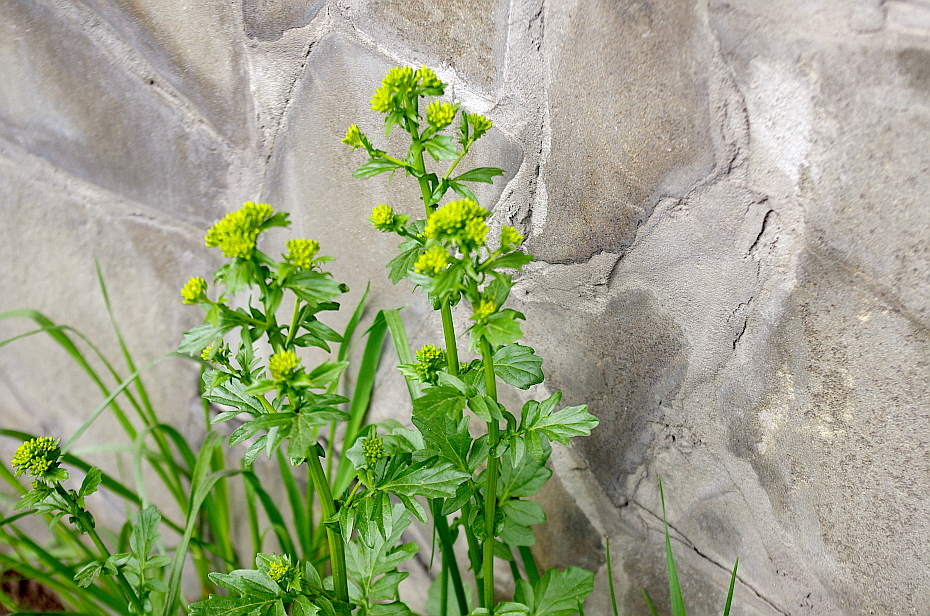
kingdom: Plantae
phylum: Tracheophyta
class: Magnoliopsida
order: Brassicales
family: Brassicaceae
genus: Barbarea
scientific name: Barbarea vulgaris
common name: Cressy-greens
